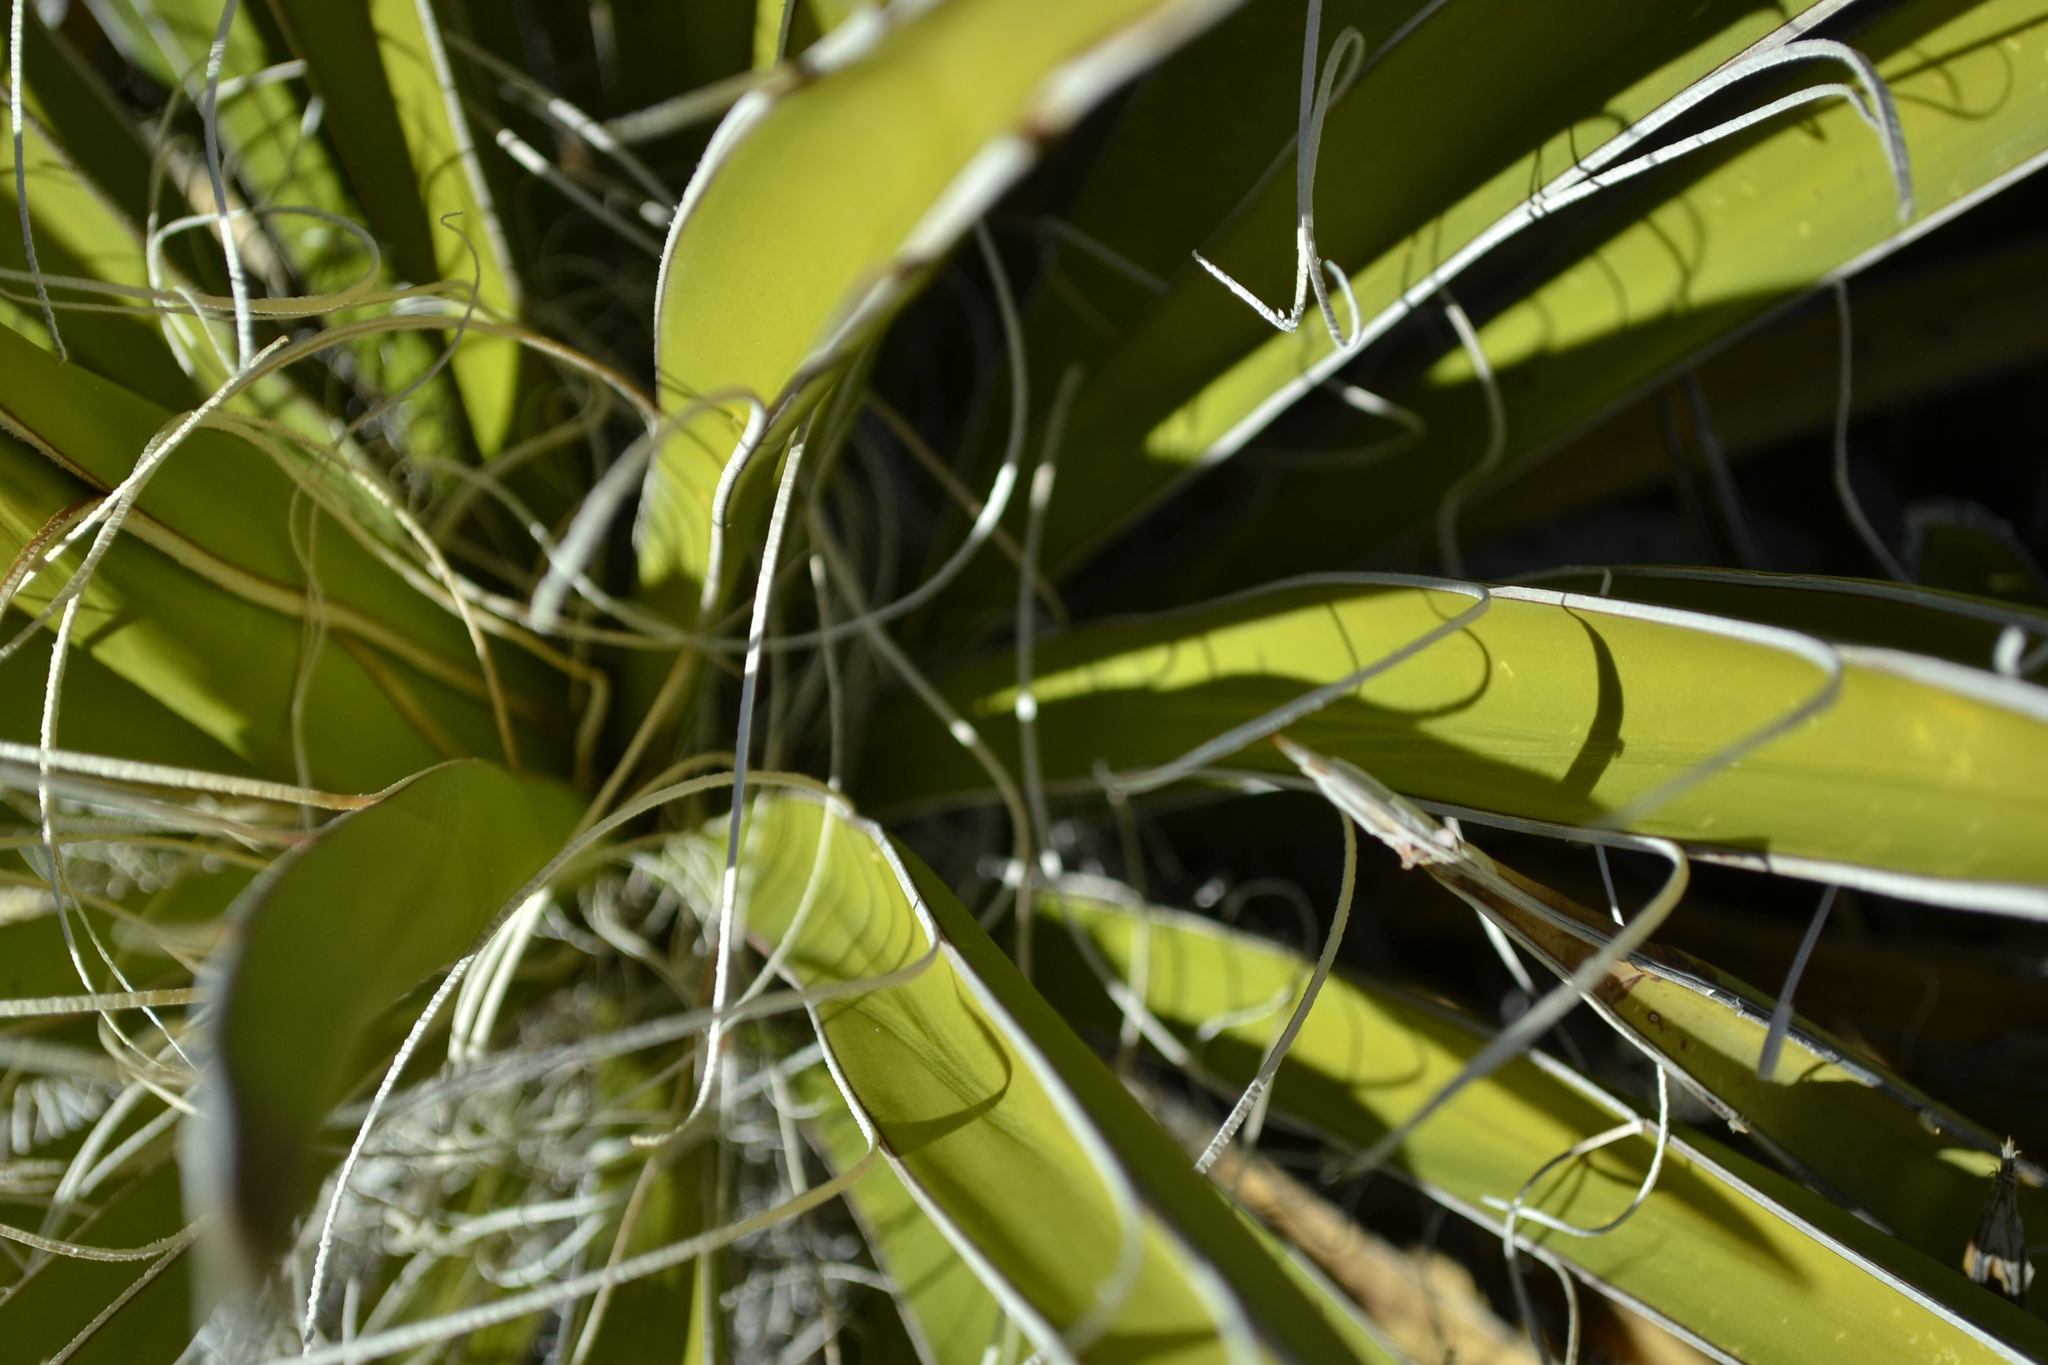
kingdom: Plantae
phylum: Tracheophyta
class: Liliopsida
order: Asparagales
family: Asparagaceae
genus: Yucca
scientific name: Yucca schidigera
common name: Mojave yucca
